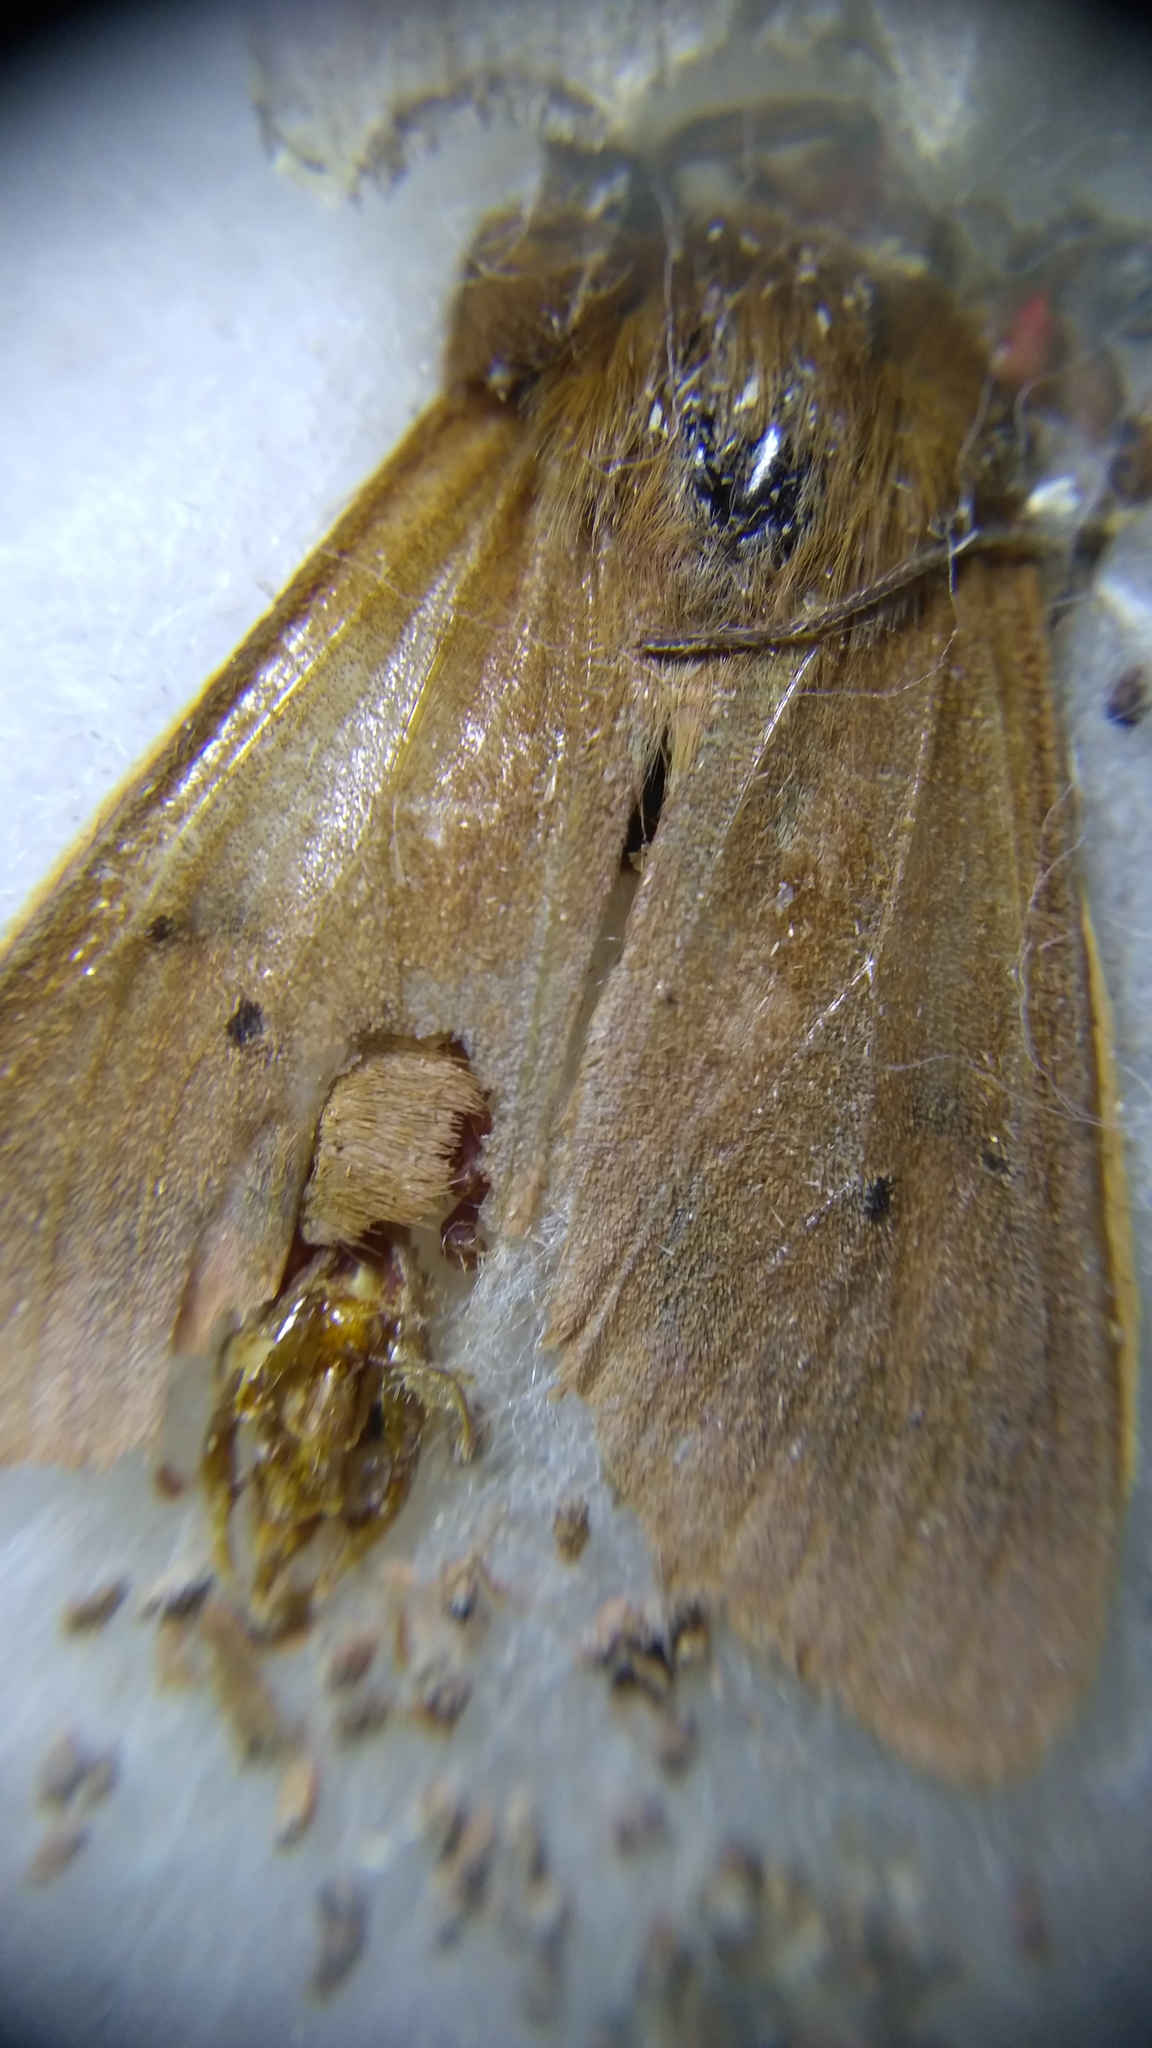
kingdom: Animalia
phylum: Arthropoda
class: Insecta
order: Lepidoptera
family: Erebidae
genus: Phragmatobia
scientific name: Phragmatobia fuliginosa
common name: Ruby tiger
